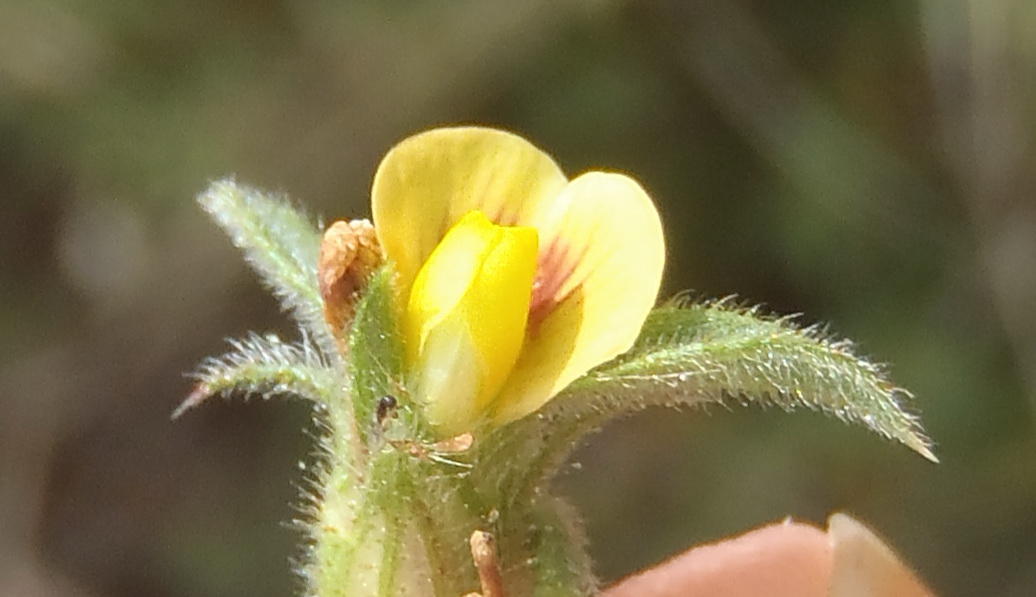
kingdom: Plantae
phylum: Tracheophyta
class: Magnoliopsida
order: Fabales
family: Fabaceae
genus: Stylosanthes
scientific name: Stylosanthes fruticosa
